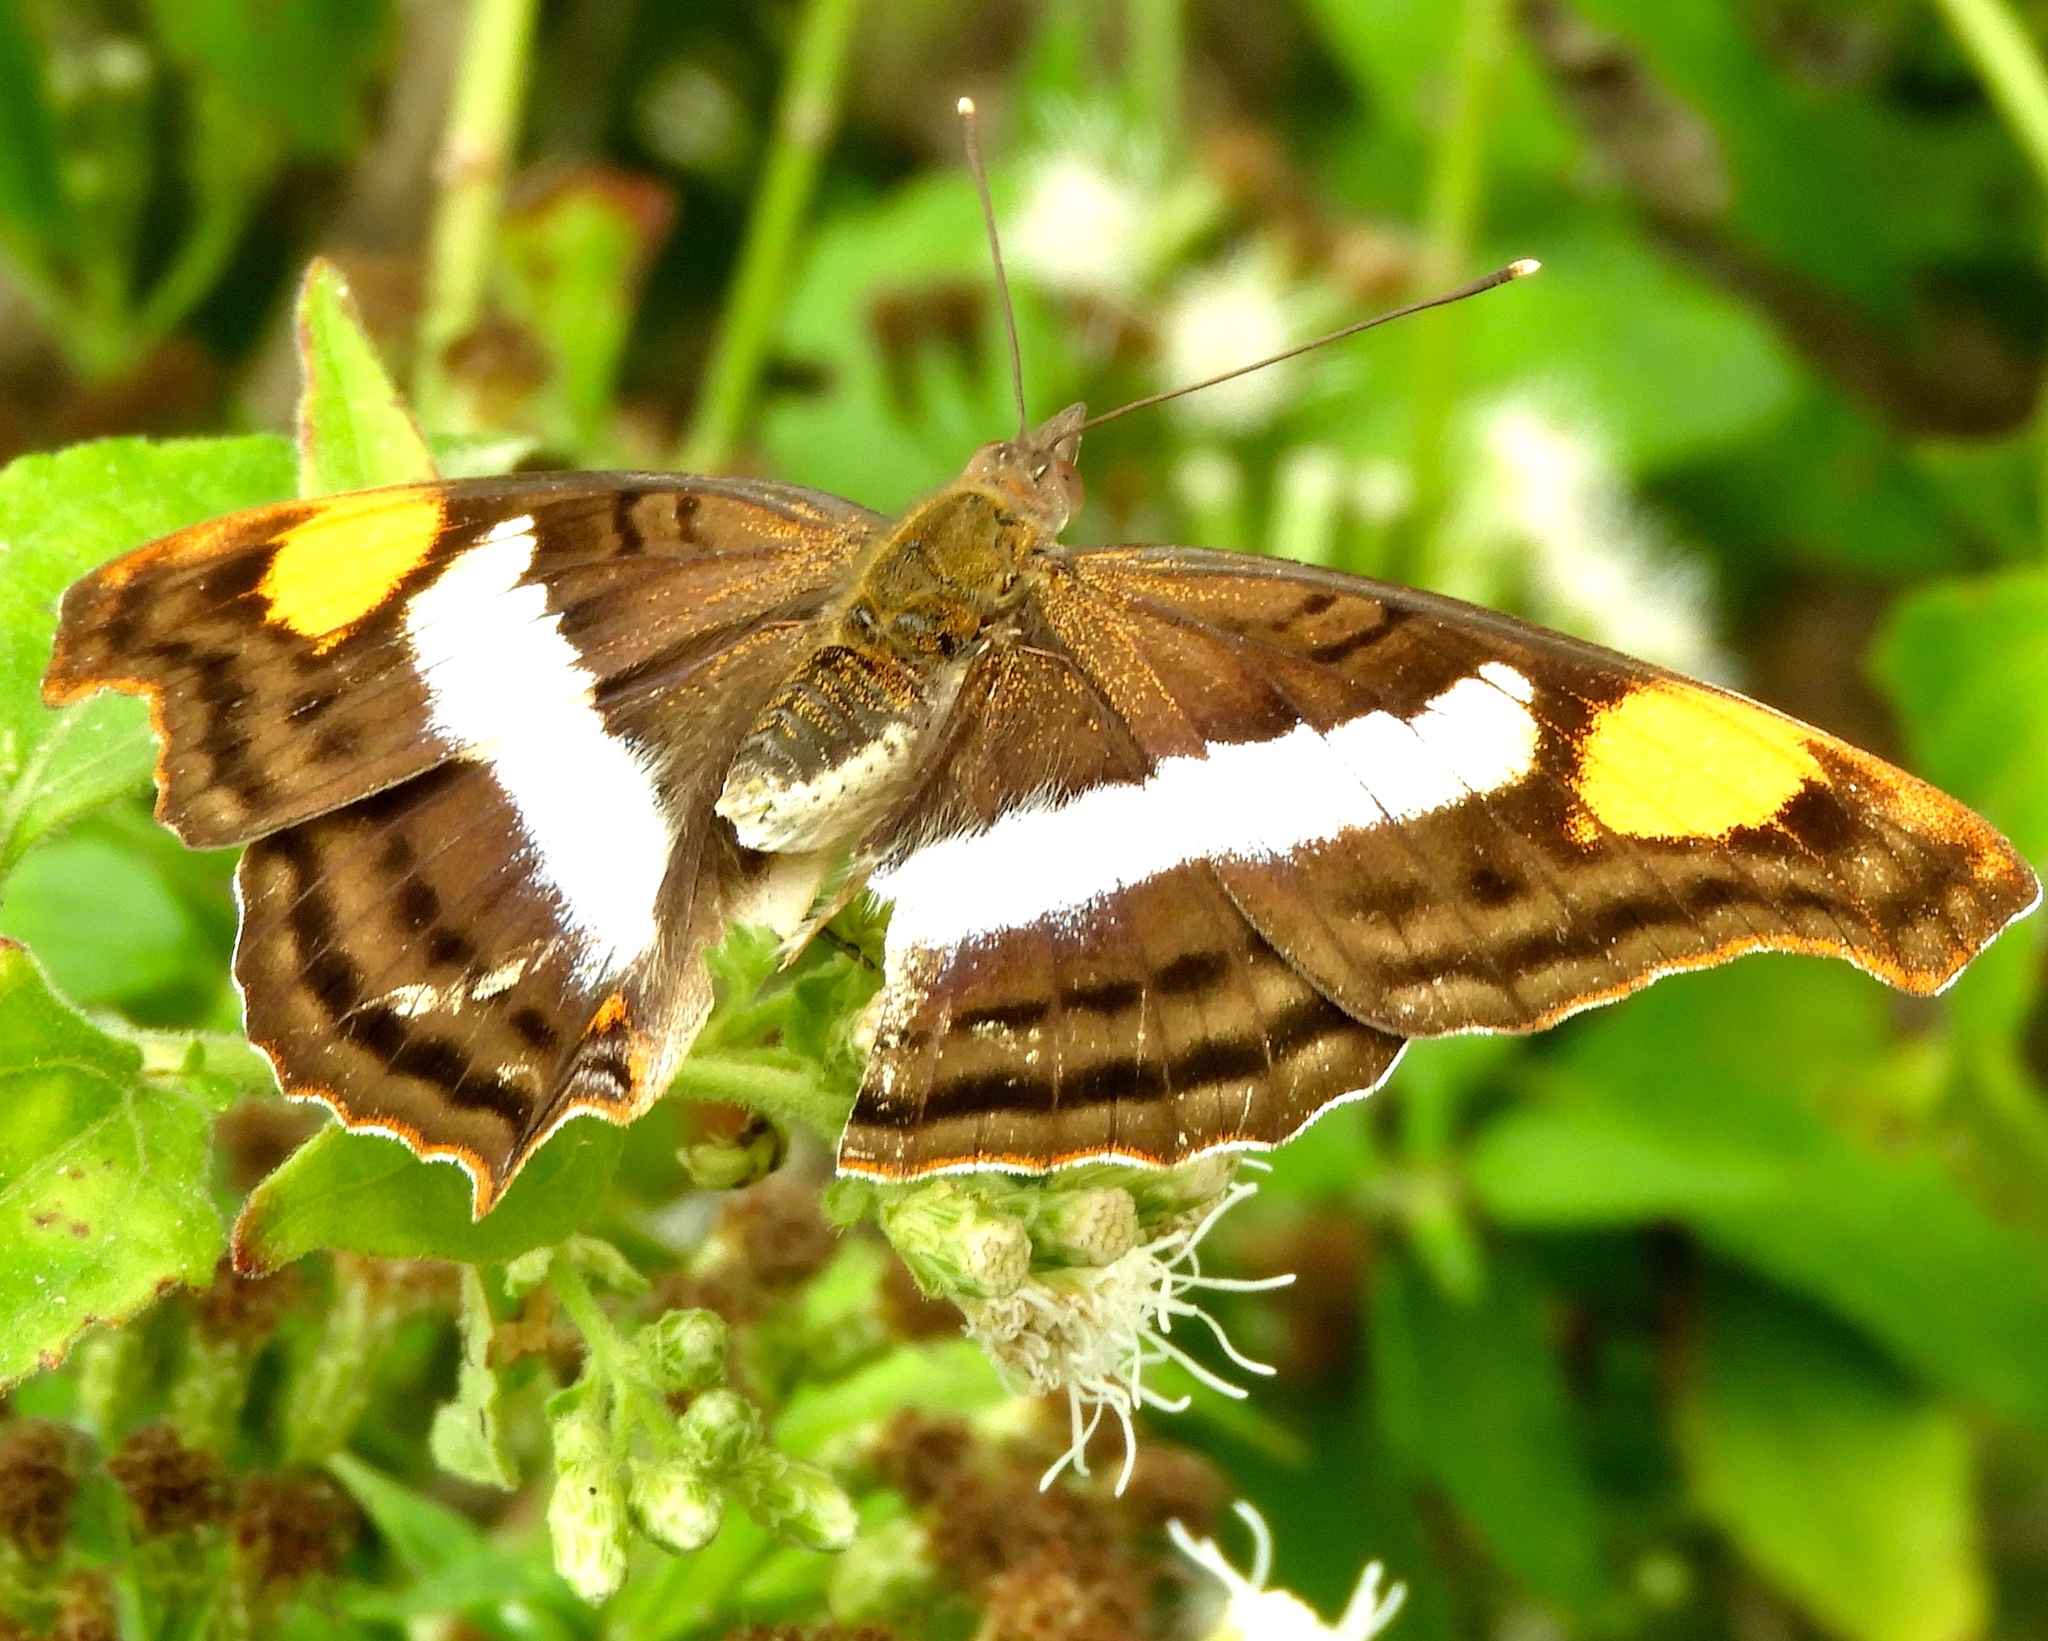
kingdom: Animalia
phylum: Arthropoda
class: Insecta
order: Lepidoptera
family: Nymphalidae
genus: Doxocopa
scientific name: Doxocopa laure
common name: Silver emperor
